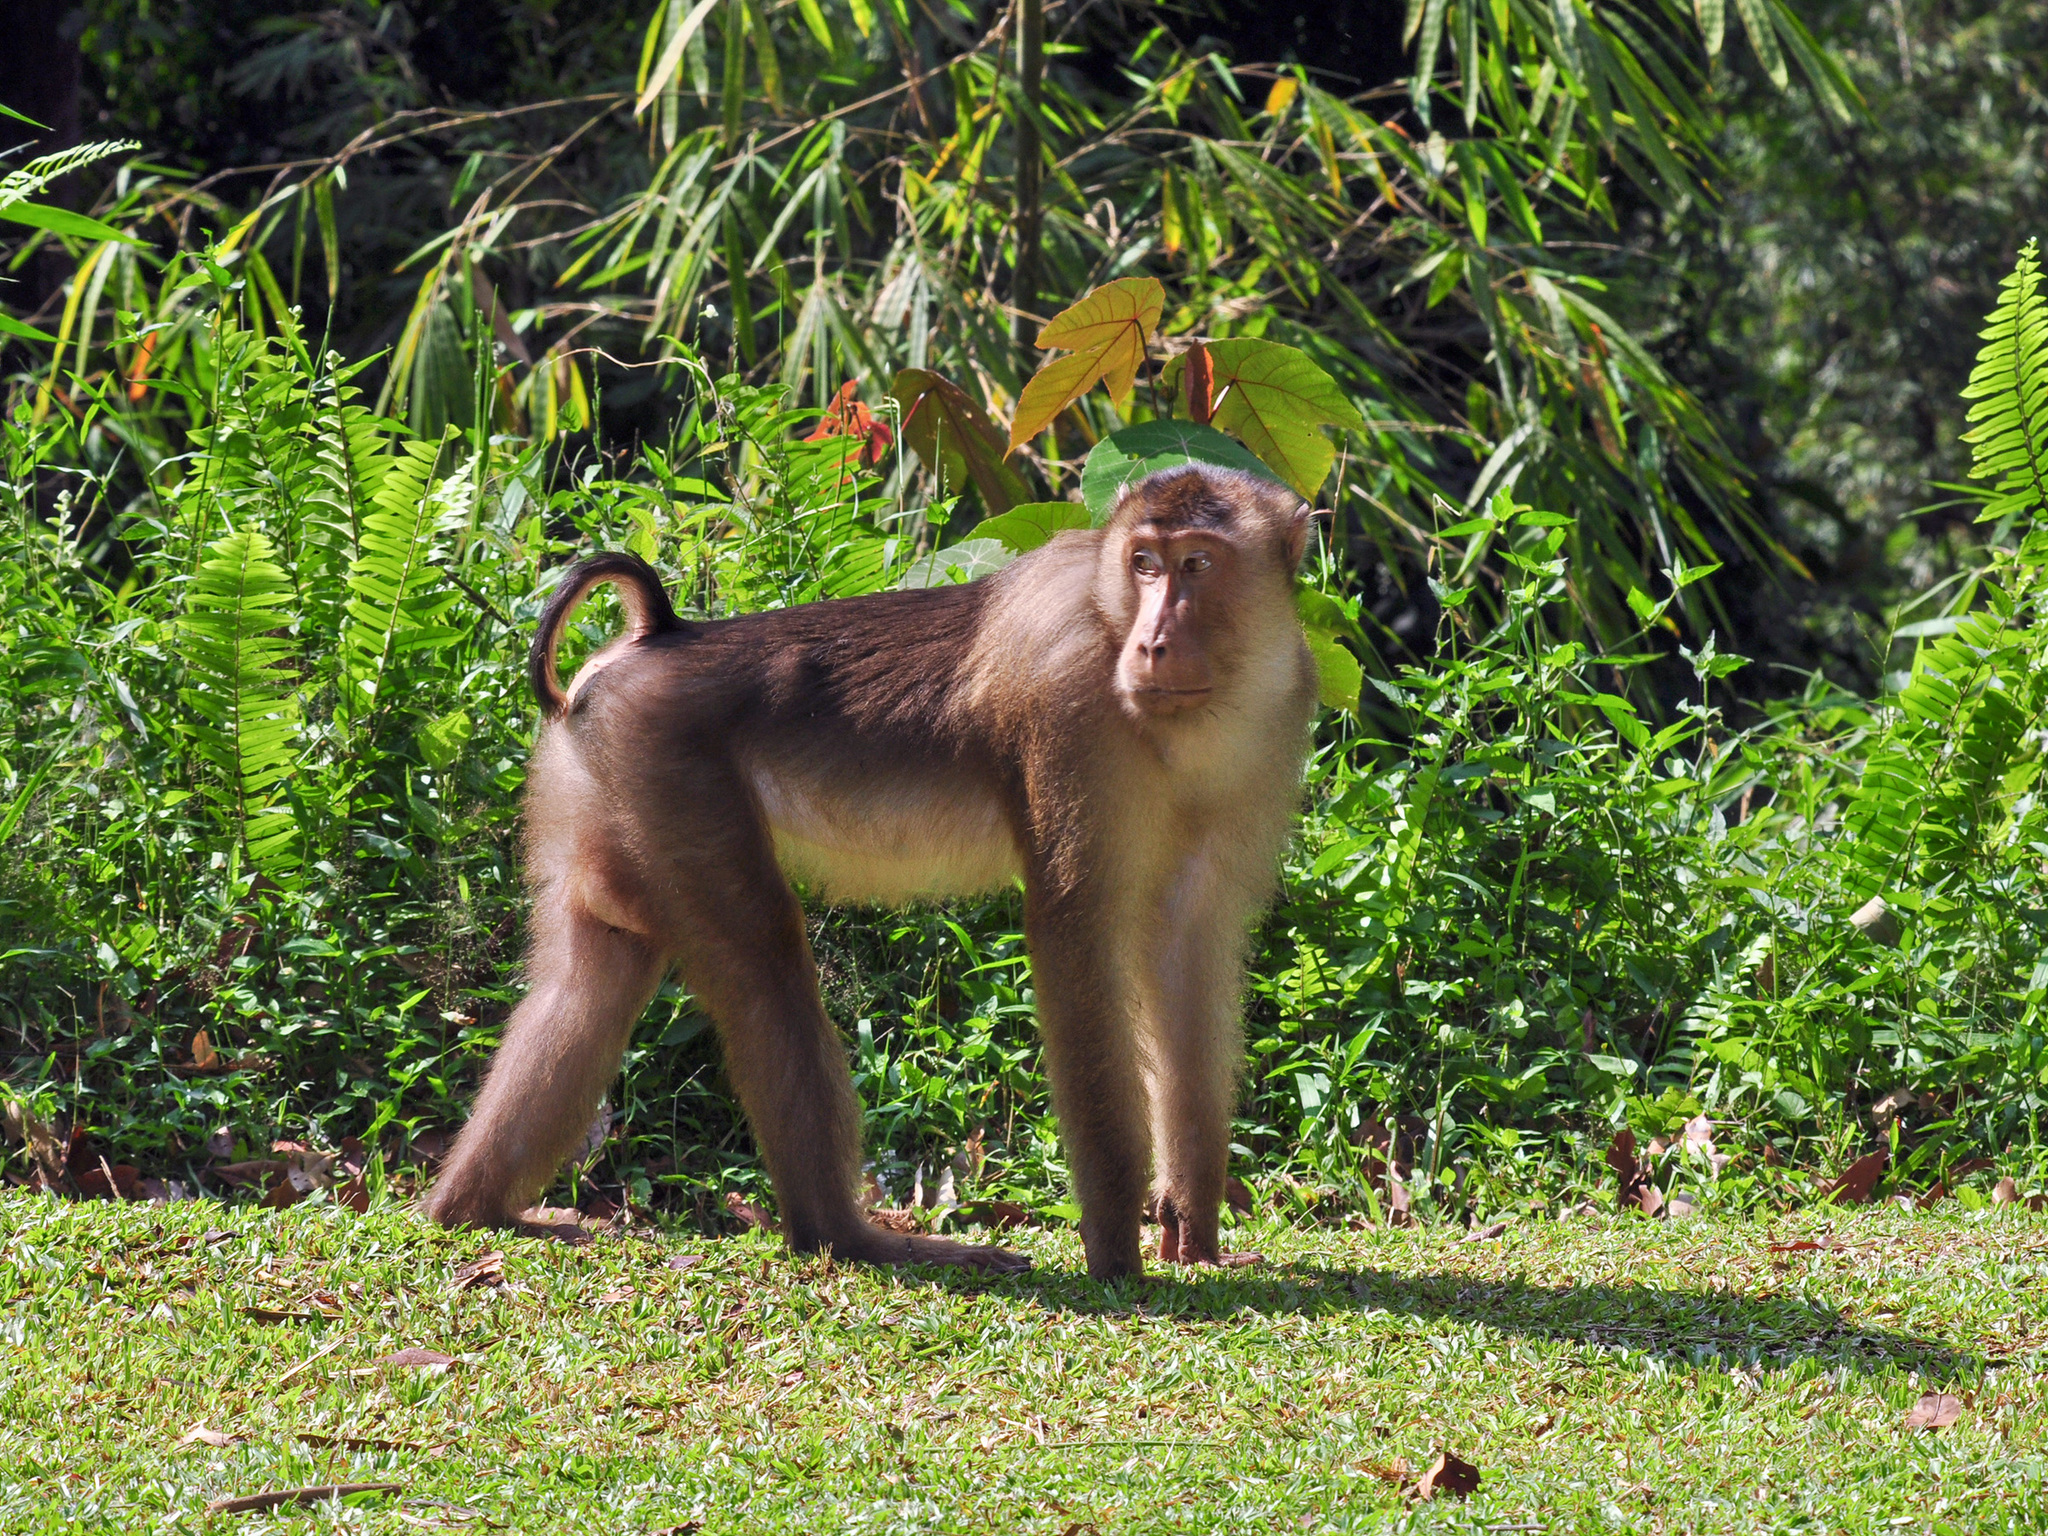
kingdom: Animalia
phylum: Chordata
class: Mammalia
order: Primates
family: Cercopithecidae
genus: Macaca
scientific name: Macaca nemestrina
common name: Southern pig-tailed macaque
